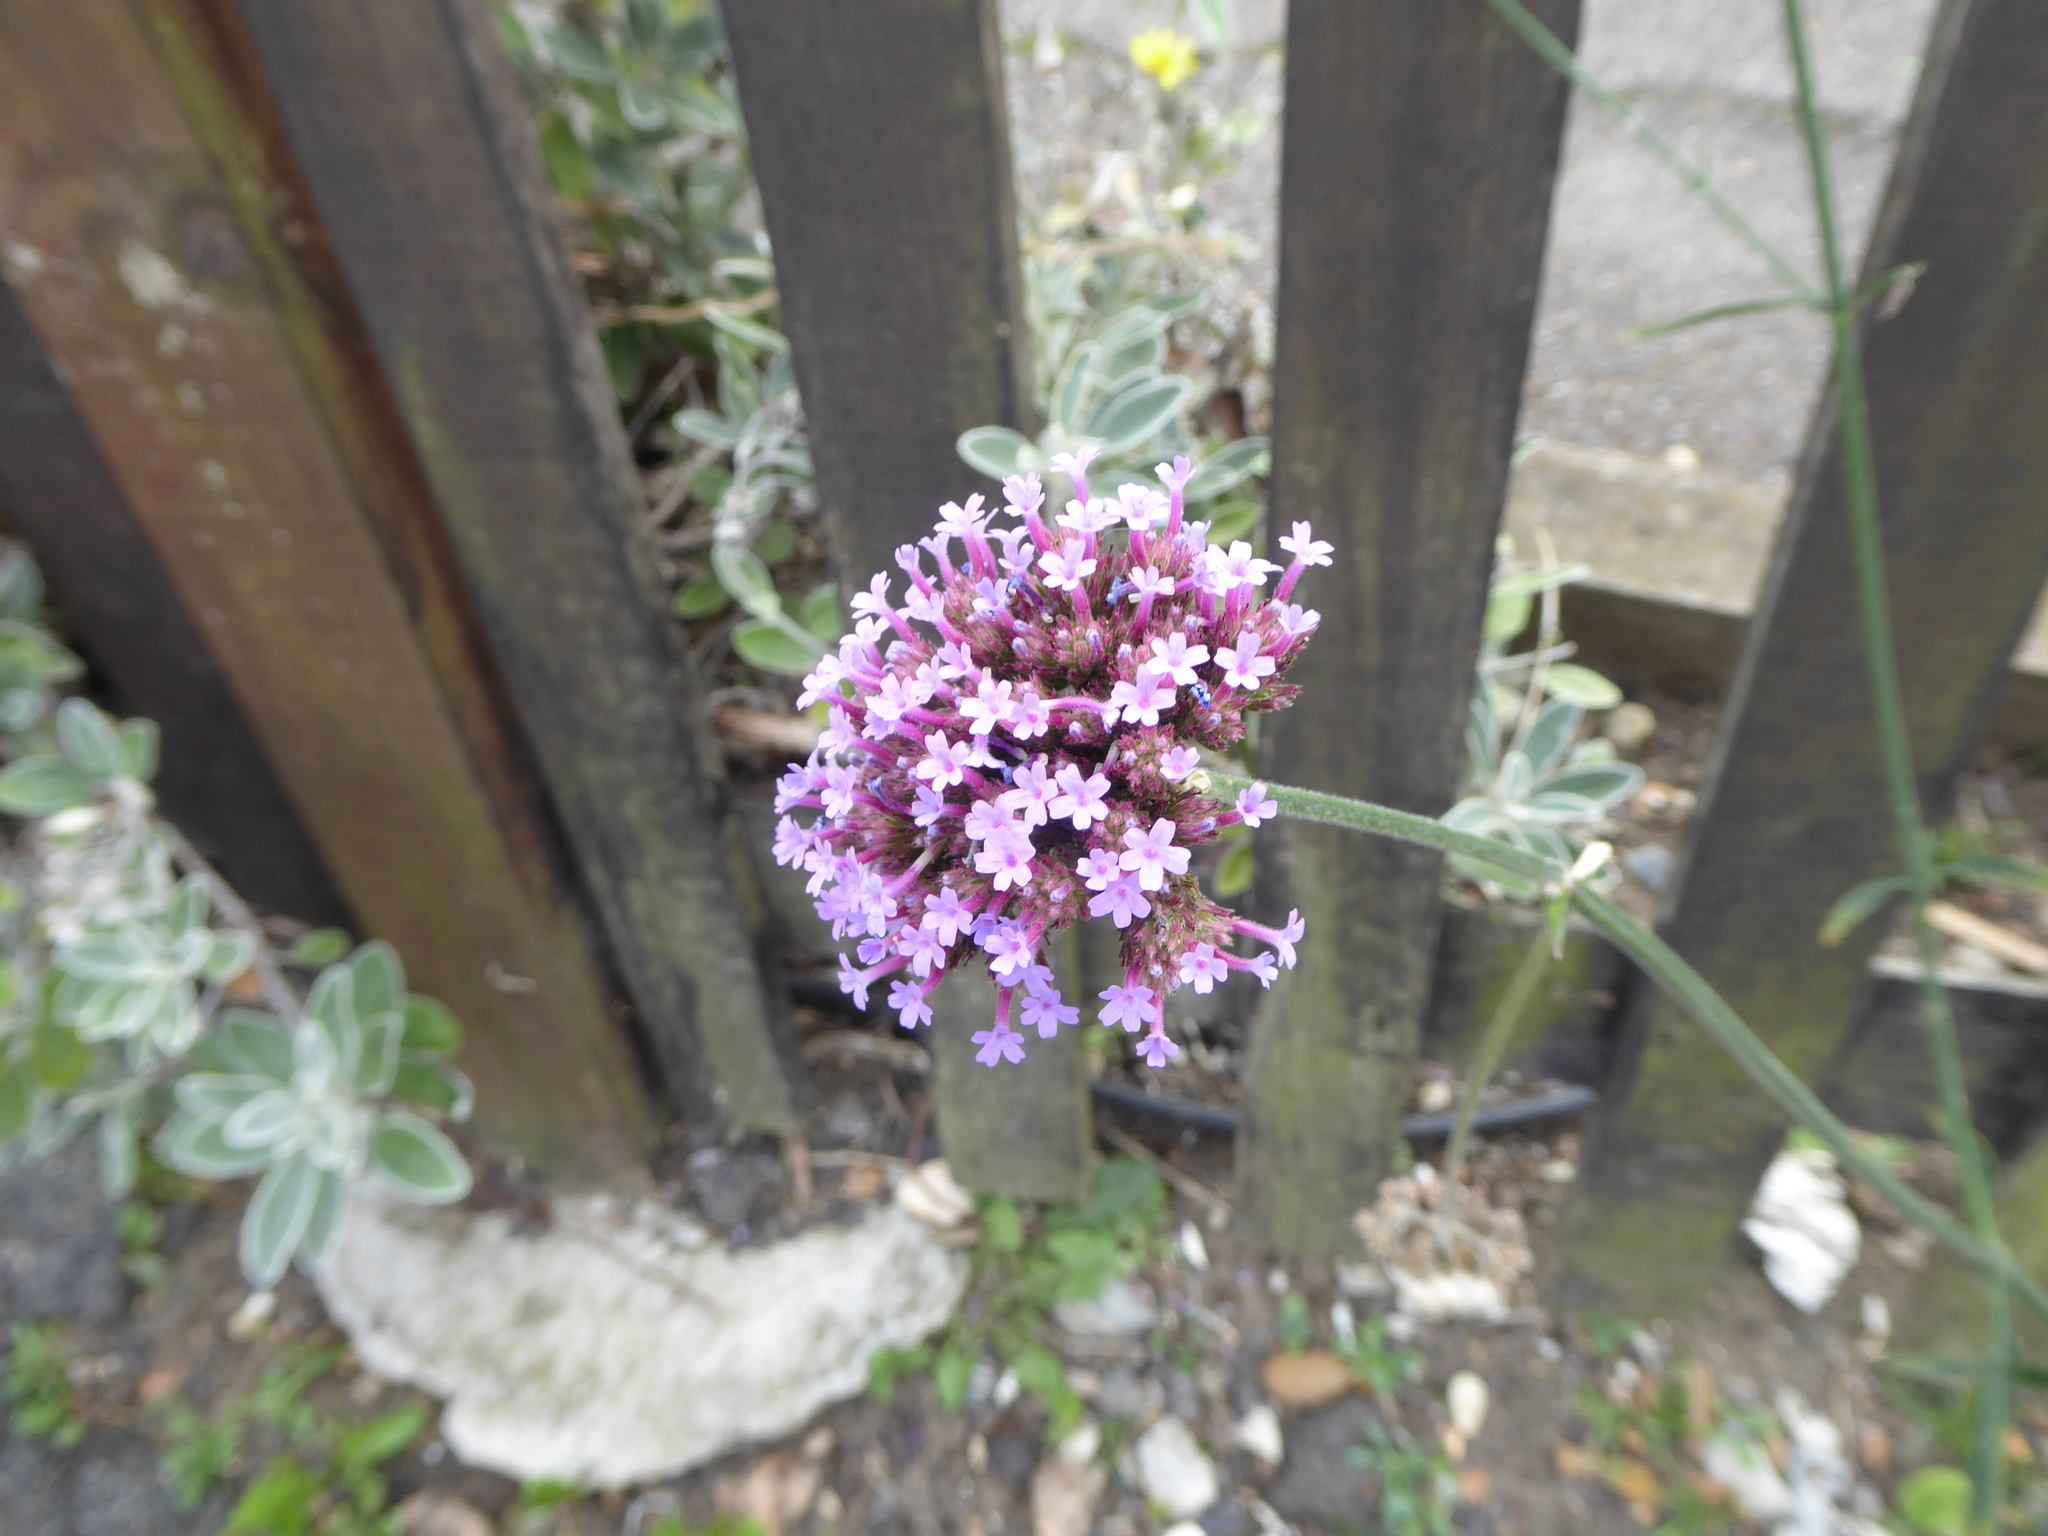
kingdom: Plantae
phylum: Tracheophyta
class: Magnoliopsida
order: Lamiales
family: Verbenaceae
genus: Verbena
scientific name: Verbena bonariensis
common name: Purpletop vervain
